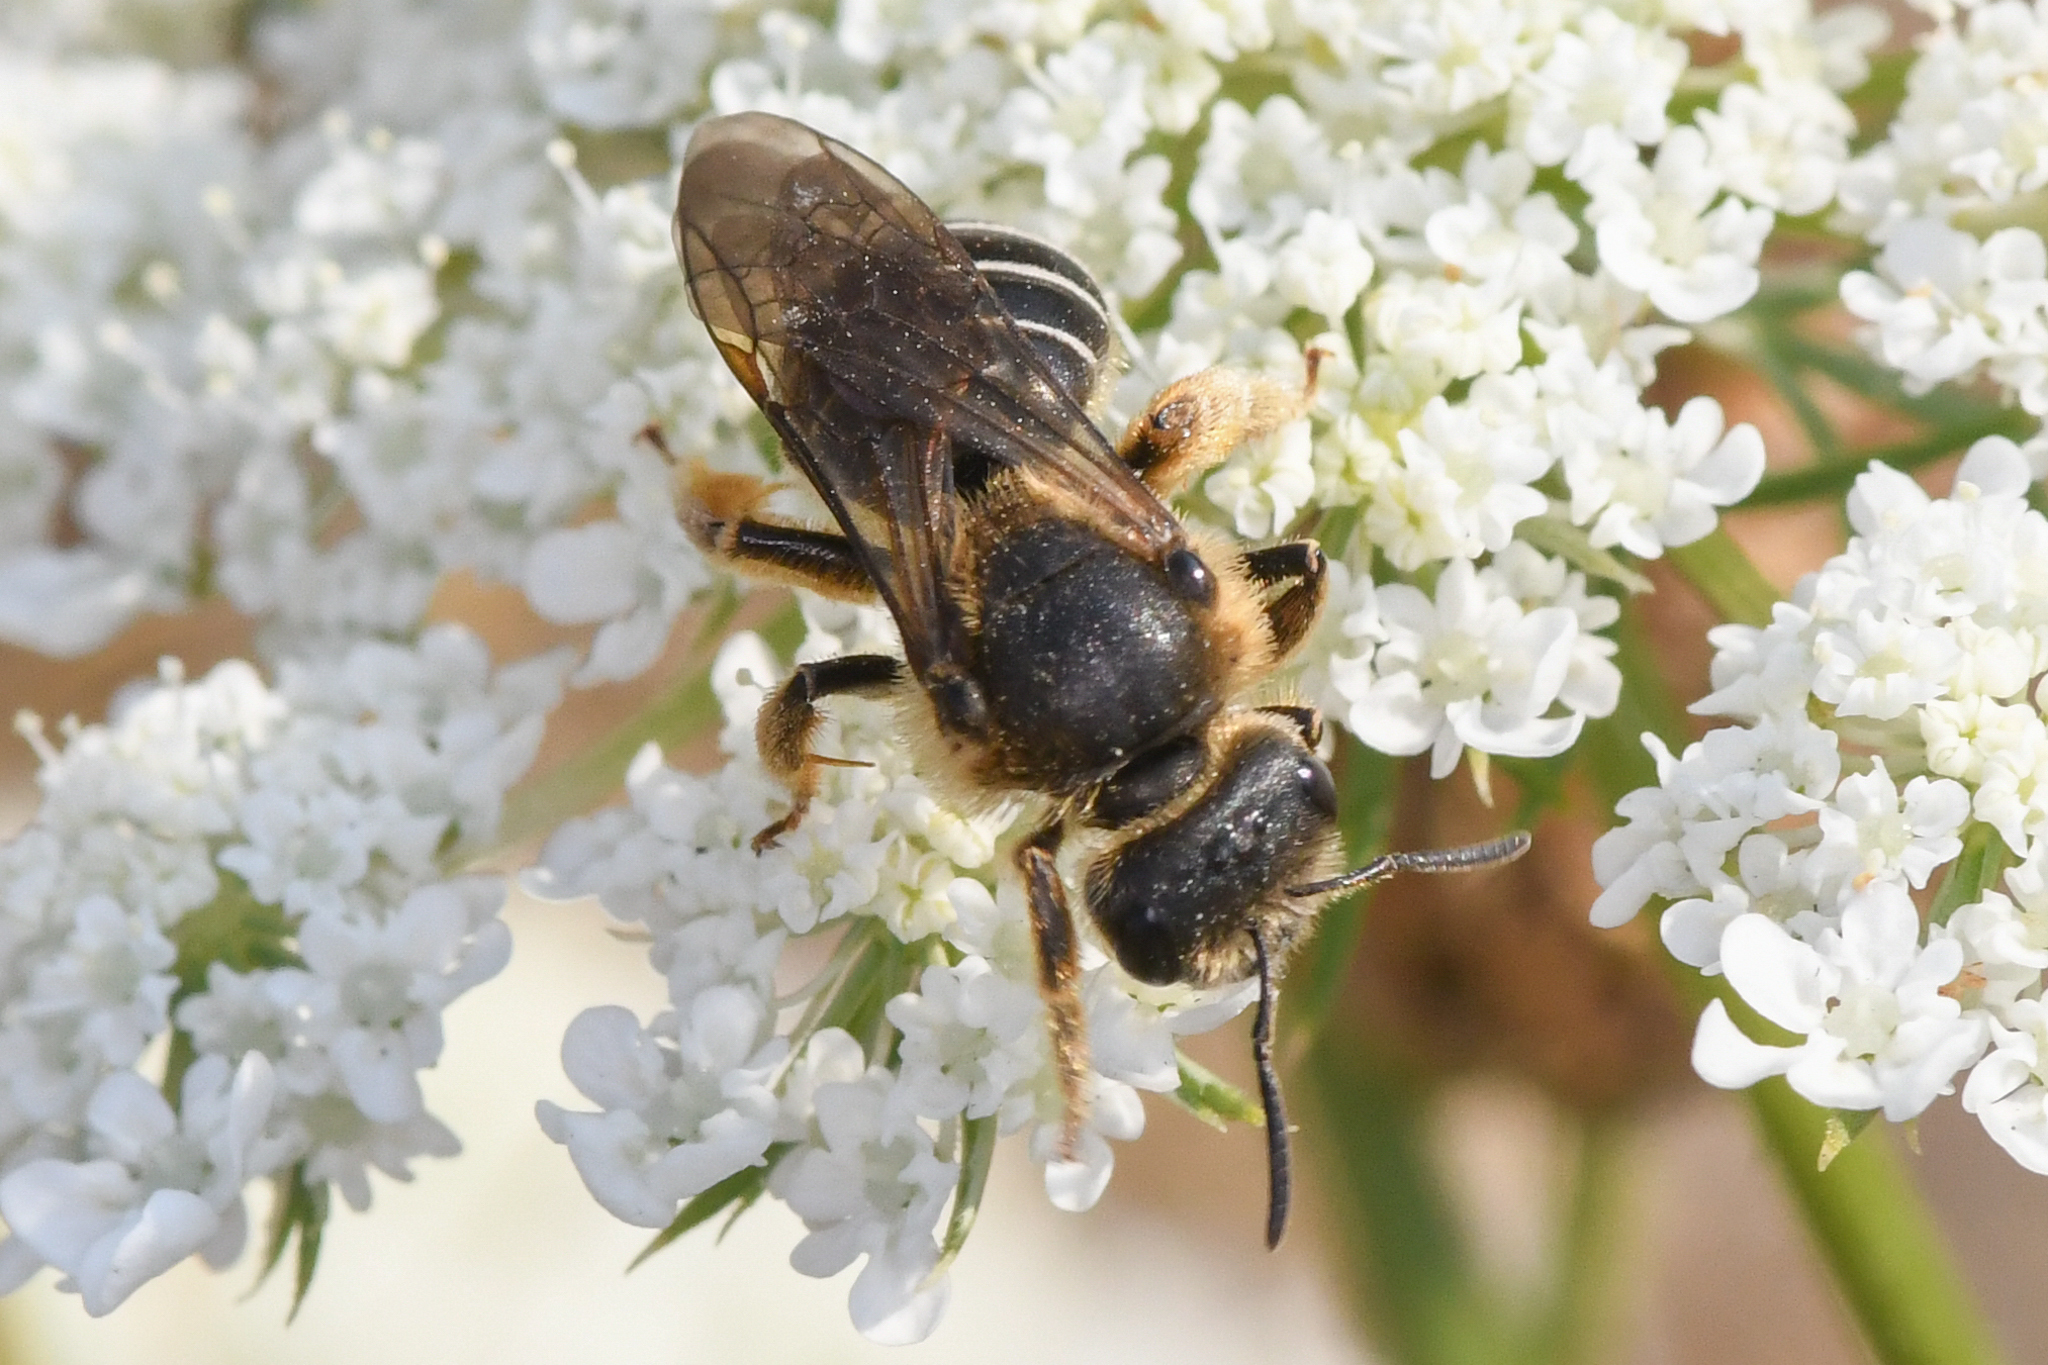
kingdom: Animalia
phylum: Arthropoda
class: Insecta
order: Hymenoptera
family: Halictidae
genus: Halictus
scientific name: Halictus rubicundus
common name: Orange-legged furrow bee
